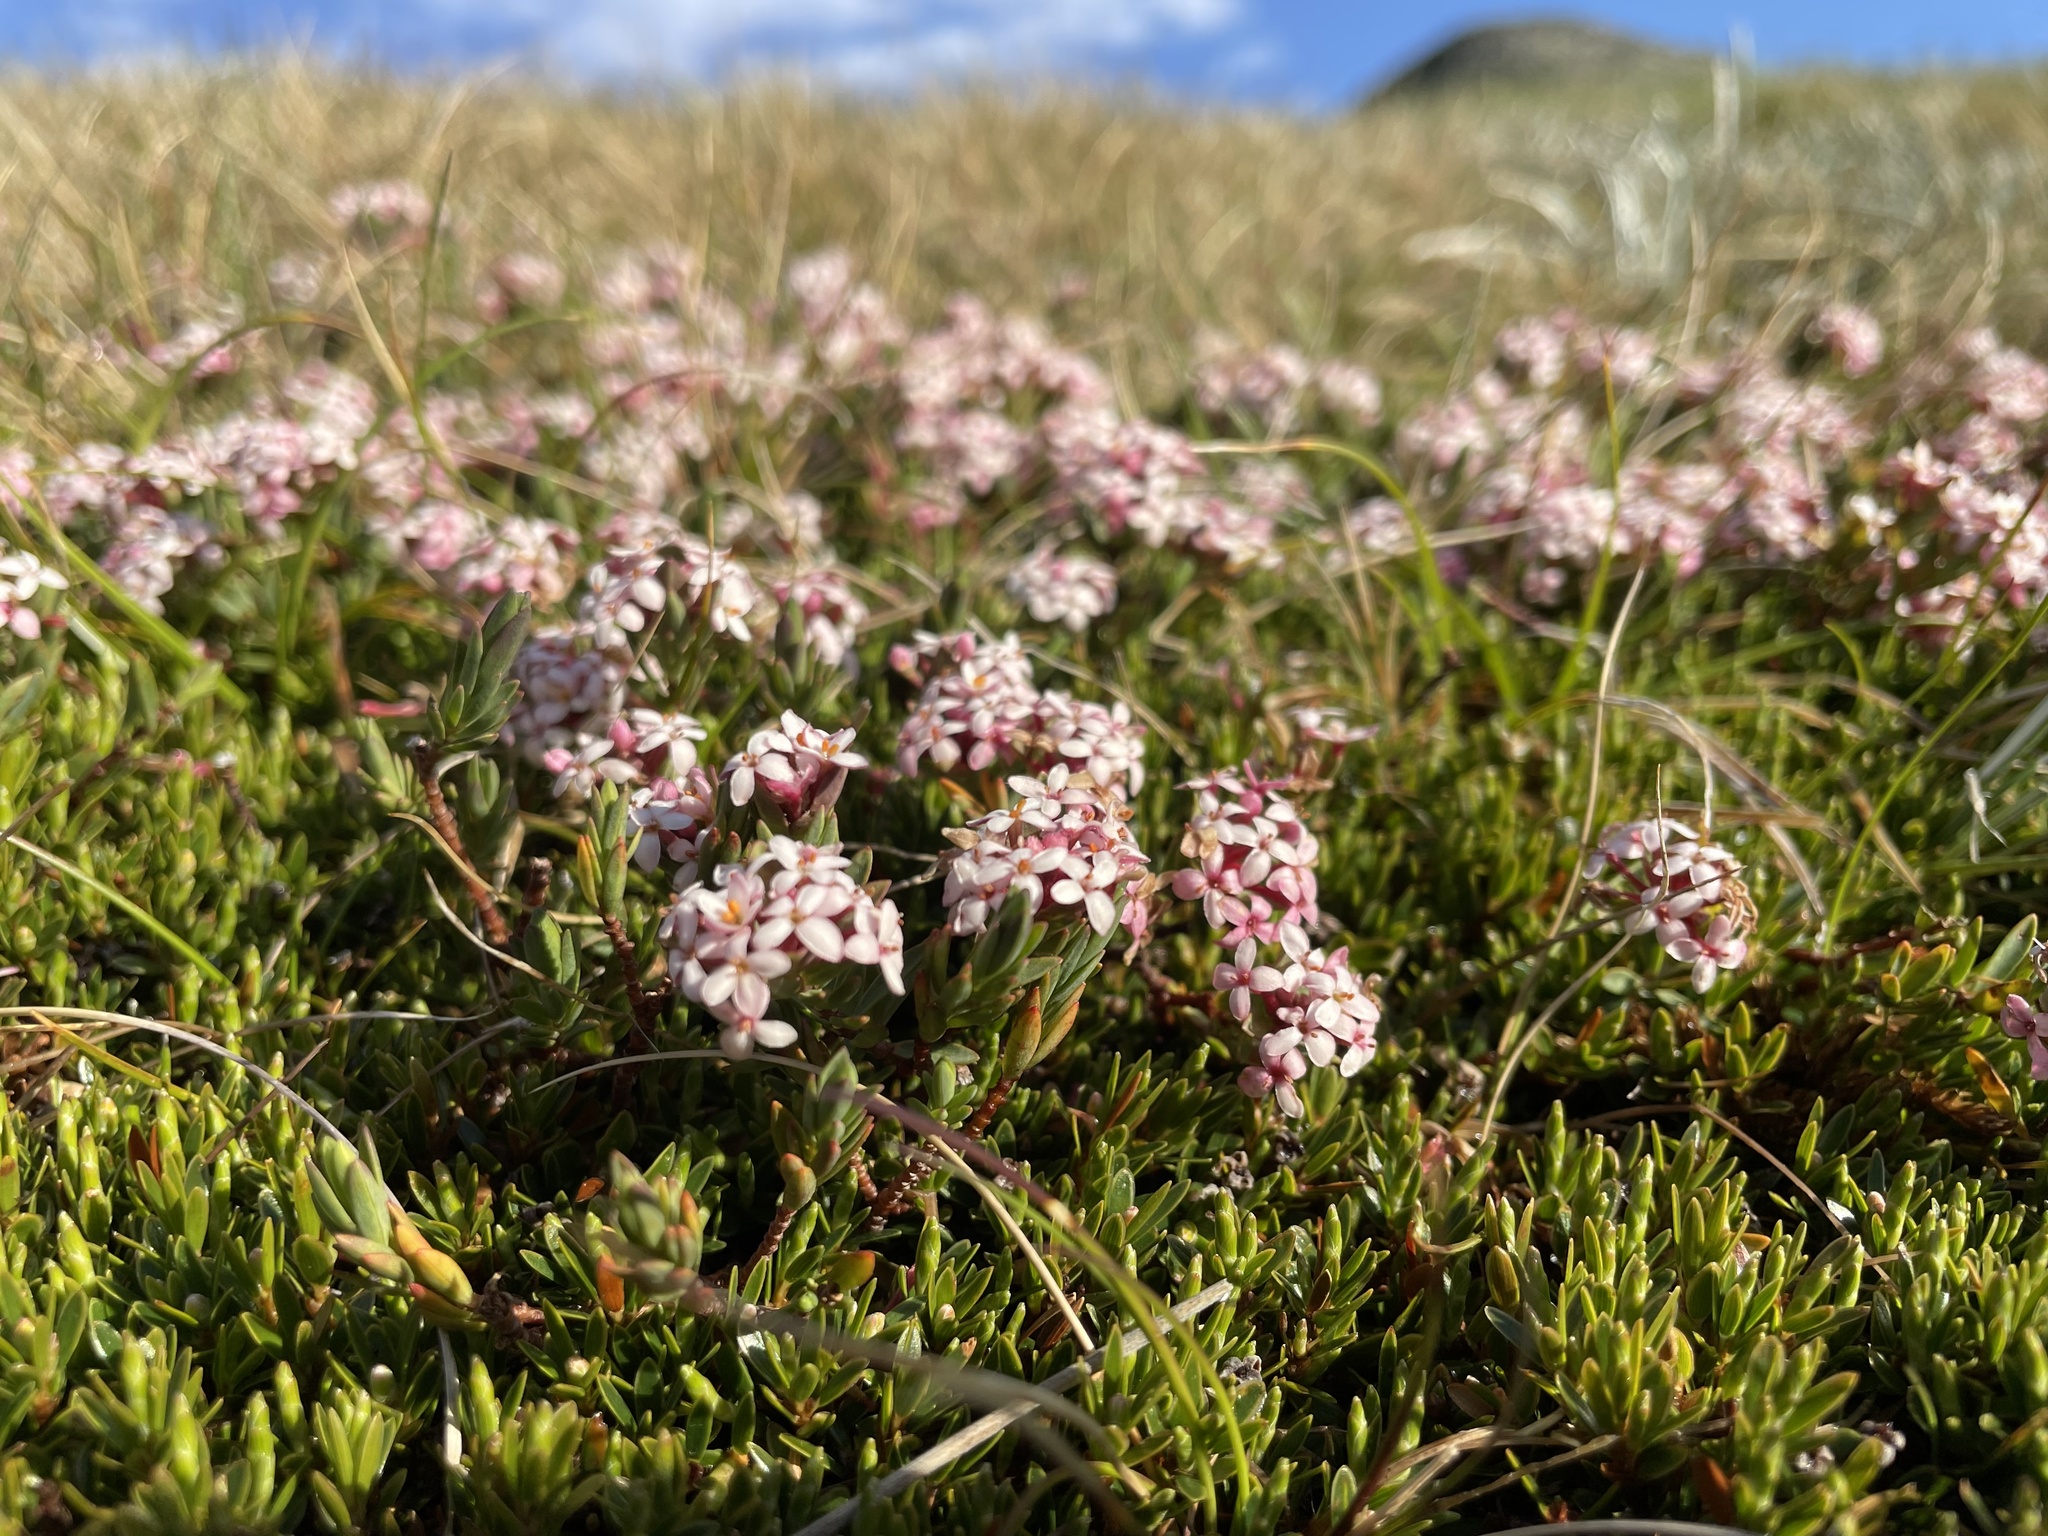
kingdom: Plantae
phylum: Tracheophyta
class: Magnoliopsida
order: Malvales
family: Thymelaeaceae
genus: Pimelea
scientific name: Pimelea alpina
